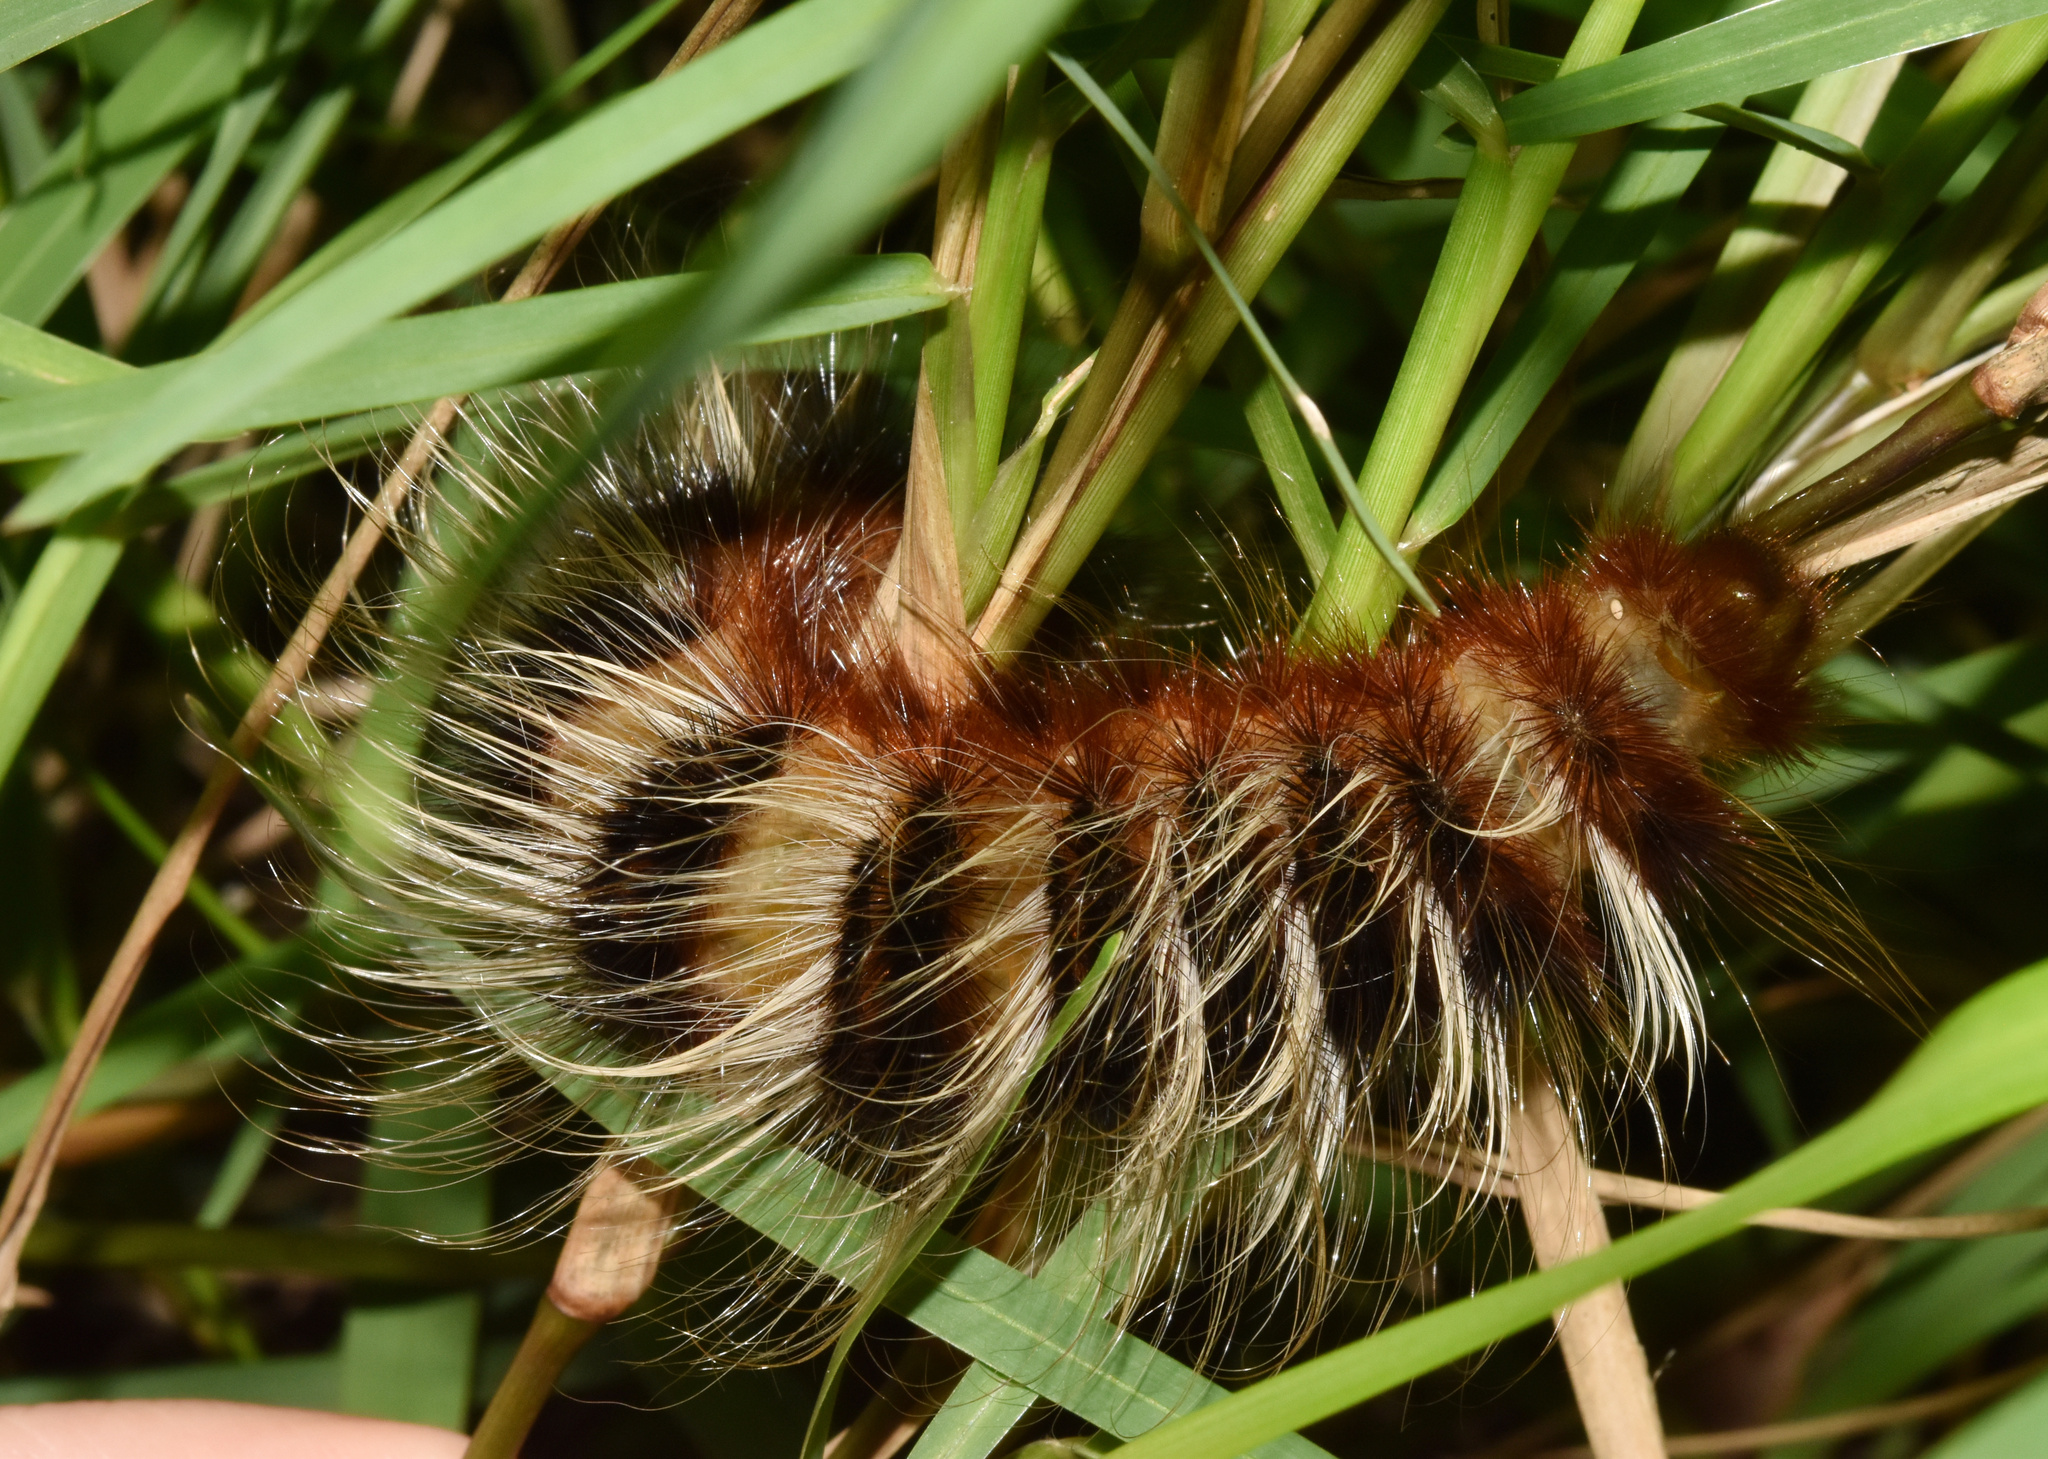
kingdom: Animalia
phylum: Arthropoda
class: Insecta
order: Lepidoptera
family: Eupterotidae
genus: Striphnopteryx
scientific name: Striphnopteryx edulis
